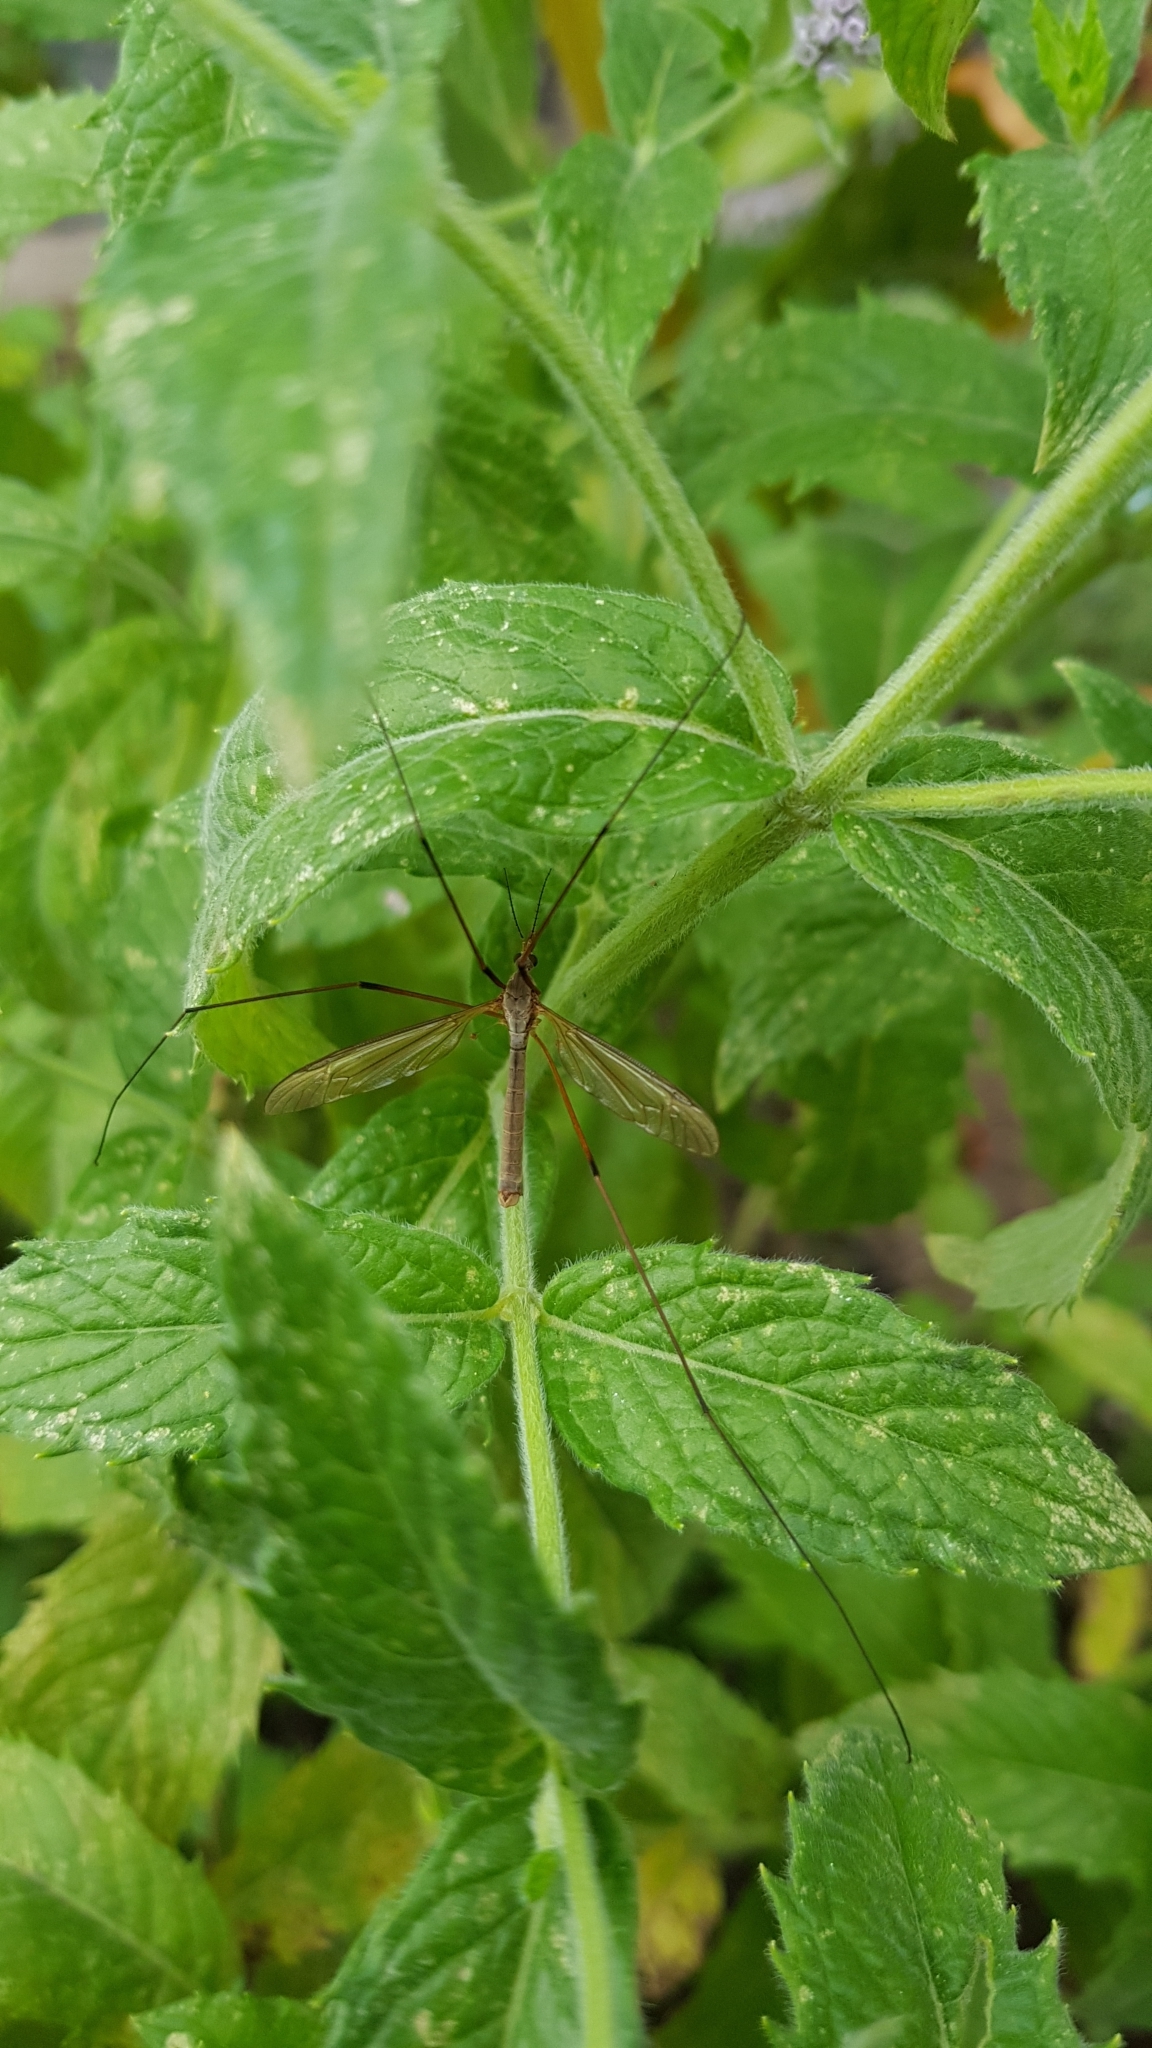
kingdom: Animalia
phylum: Arthropoda
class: Insecta
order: Diptera
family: Tipulidae
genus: Tipula
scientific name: Tipula paludosa
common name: European cranefly
